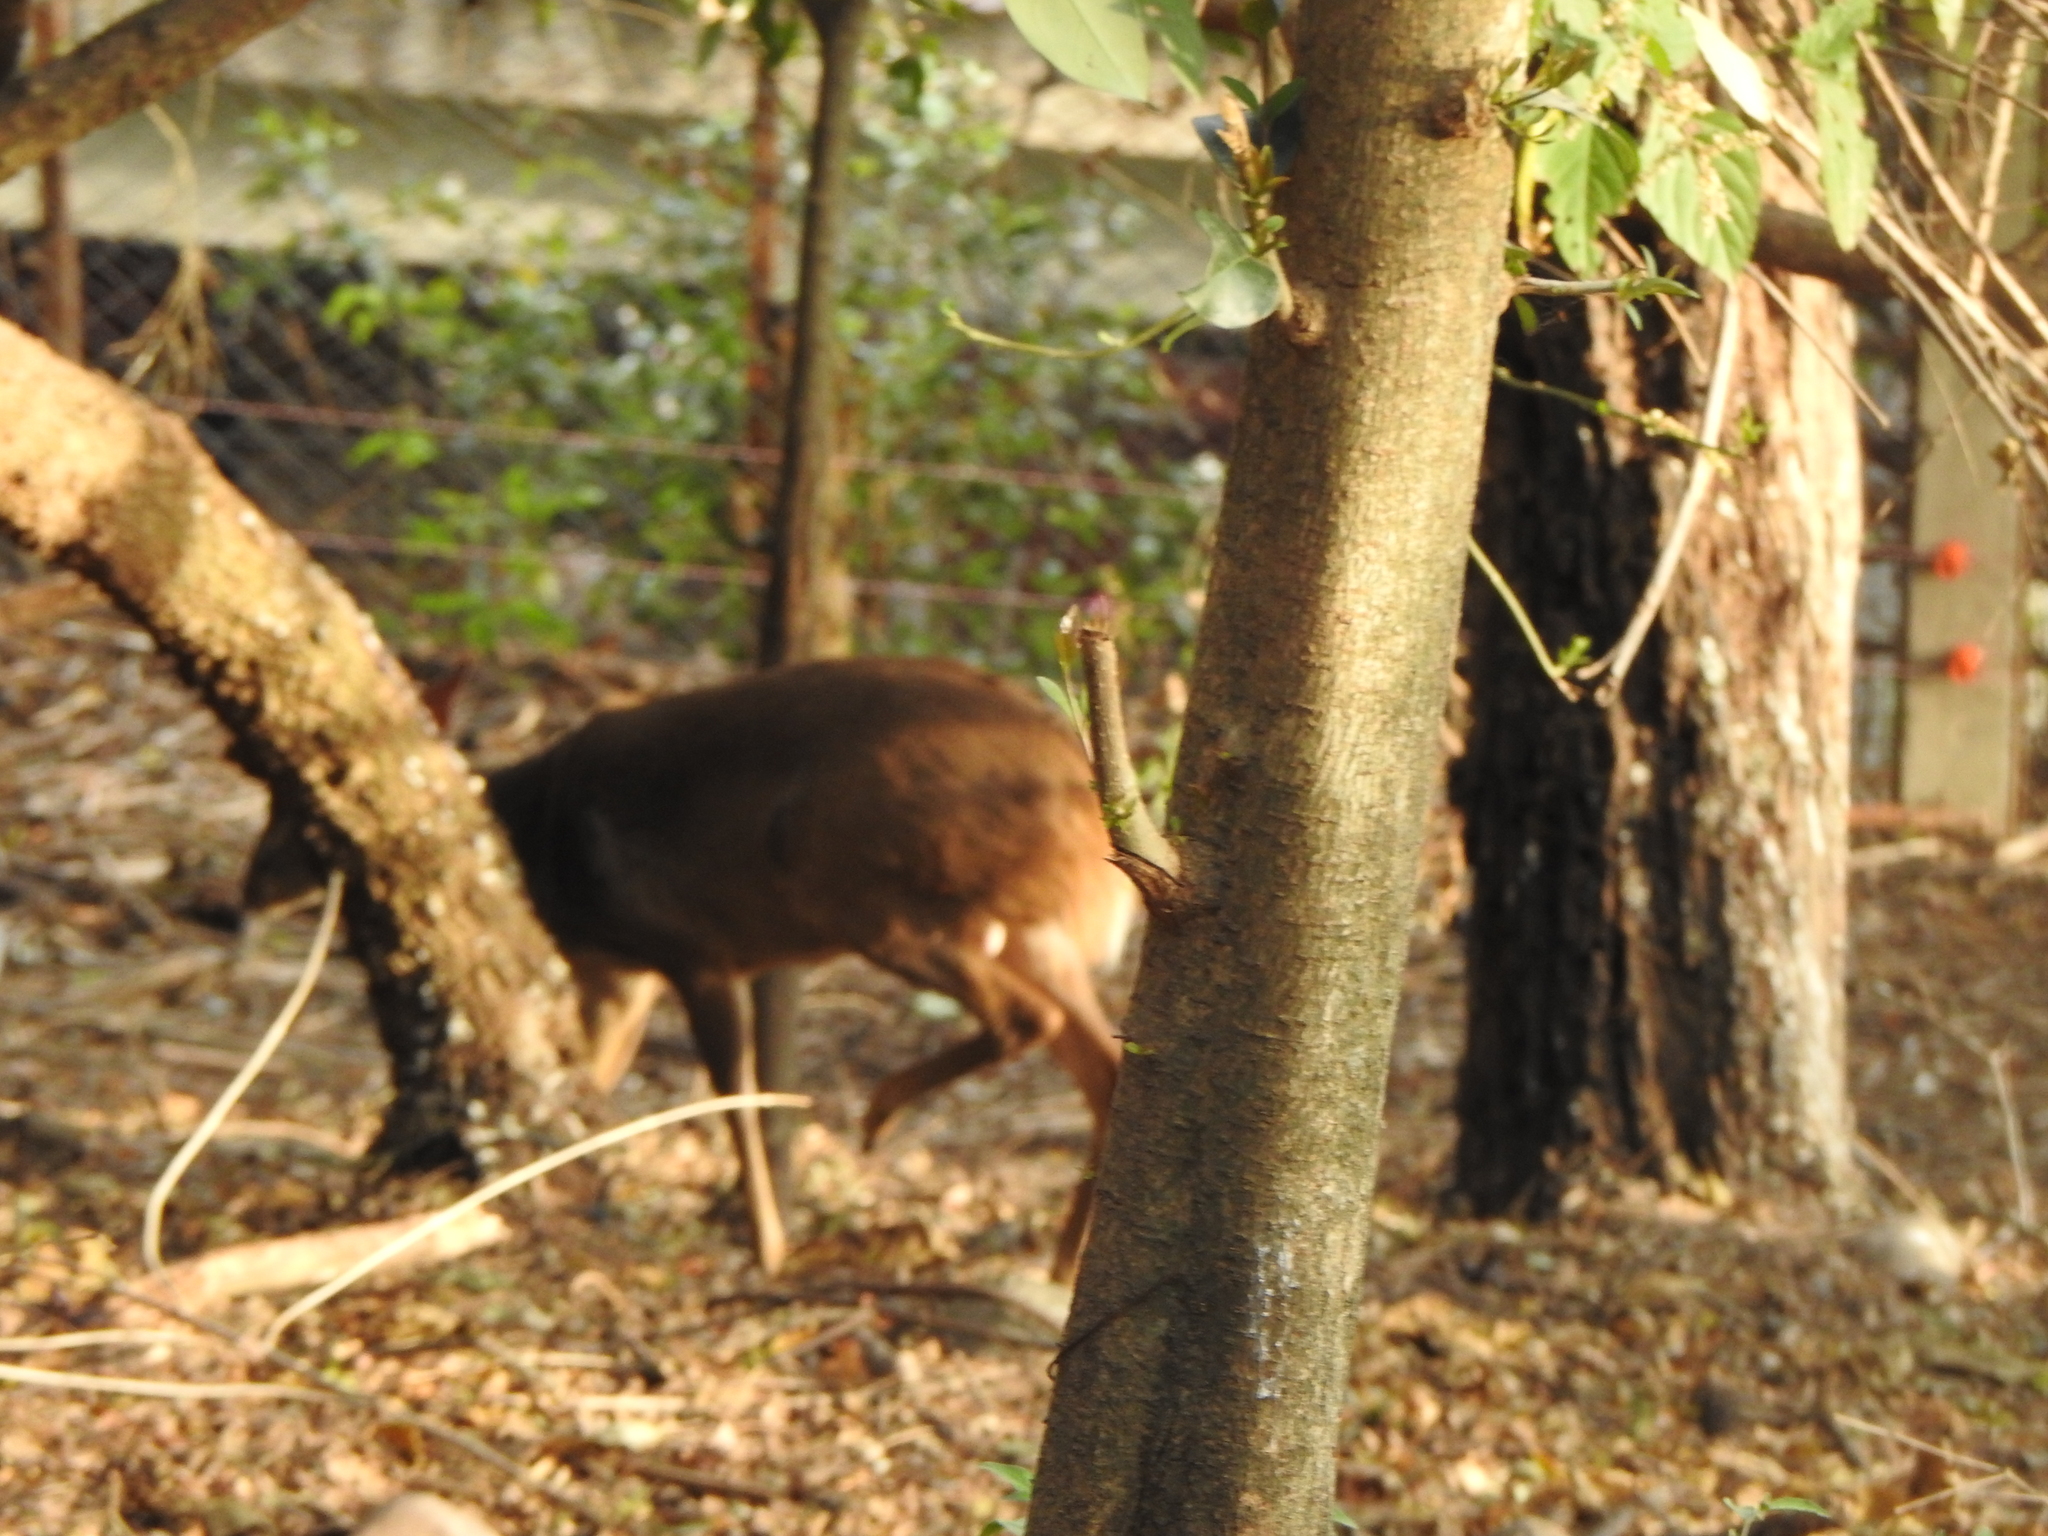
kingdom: Animalia
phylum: Chordata
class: Mammalia
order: Artiodactyla
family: Cervidae
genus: Mazama
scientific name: Mazama gouazoubira
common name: Gray brocket
